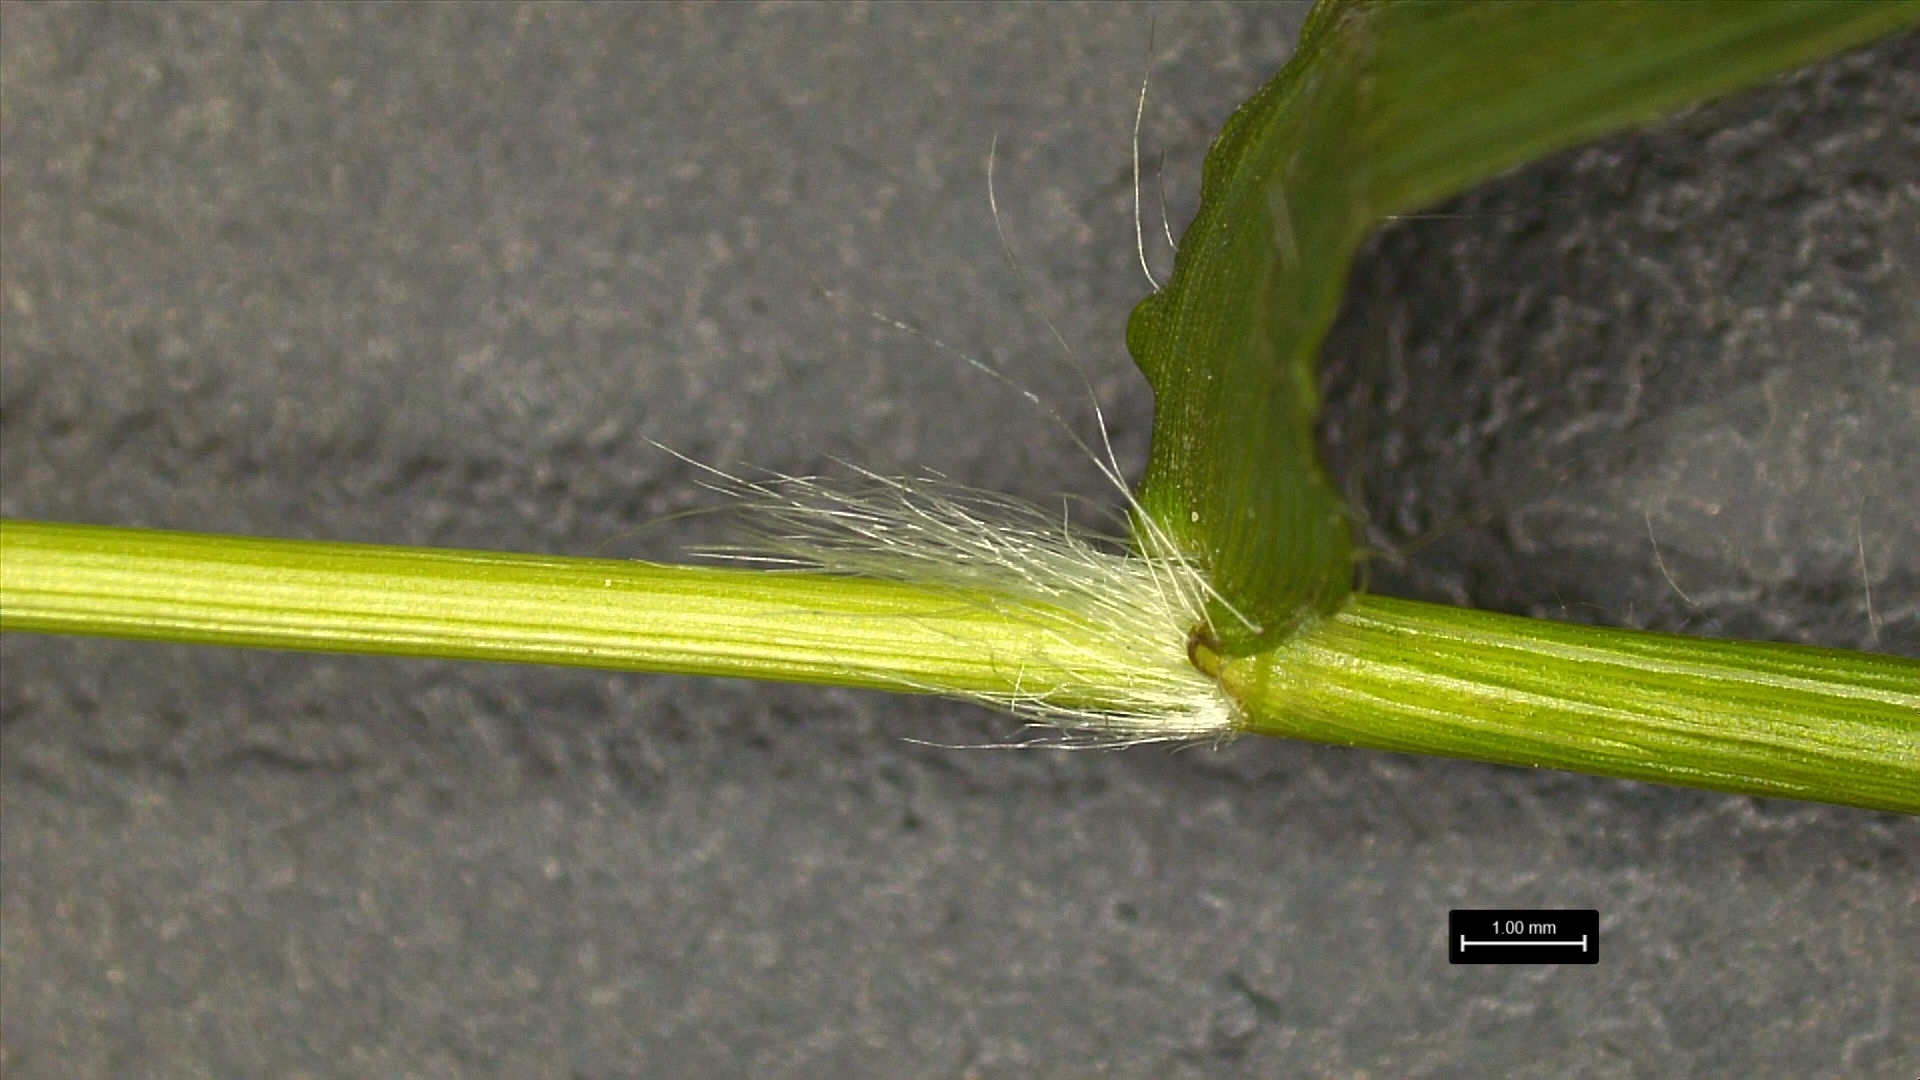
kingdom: Plantae
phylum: Tracheophyta
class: Liliopsida
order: Poales
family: Poaceae
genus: Dichanthelium
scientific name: Dichanthelium lindheimeri
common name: Lindheimer's panicgrass
